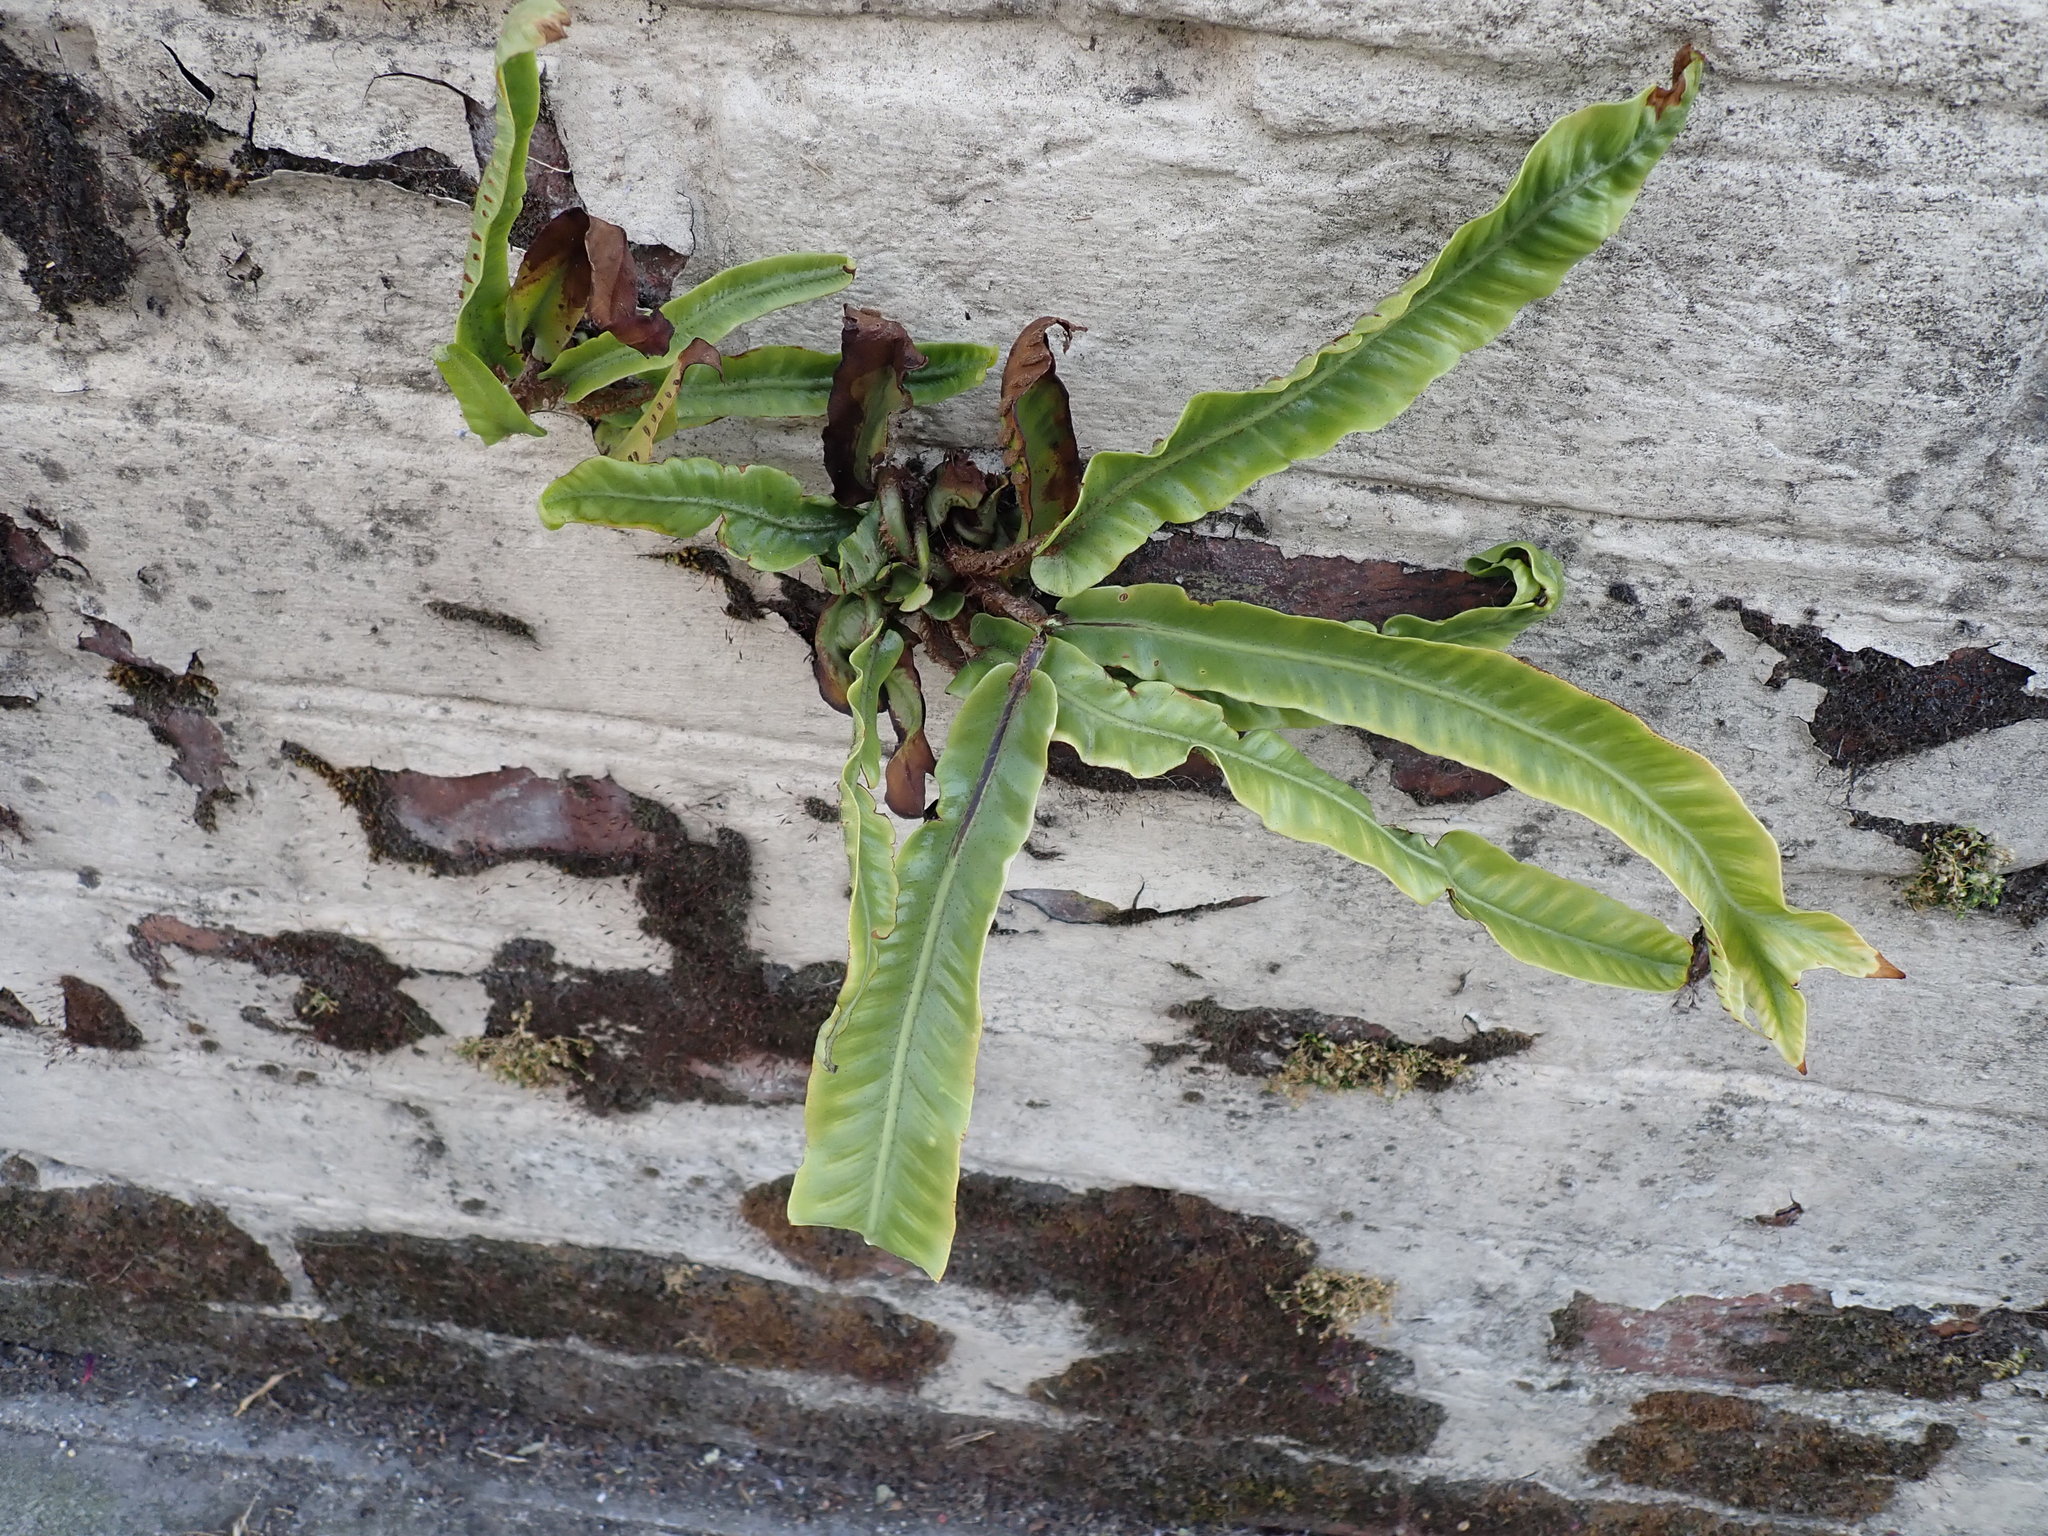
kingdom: Plantae
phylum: Tracheophyta
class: Polypodiopsida
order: Polypodiales
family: Aspleniaceae
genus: Asplenium
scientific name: Asplenium scolopendrium
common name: Hart's-tongue fern
